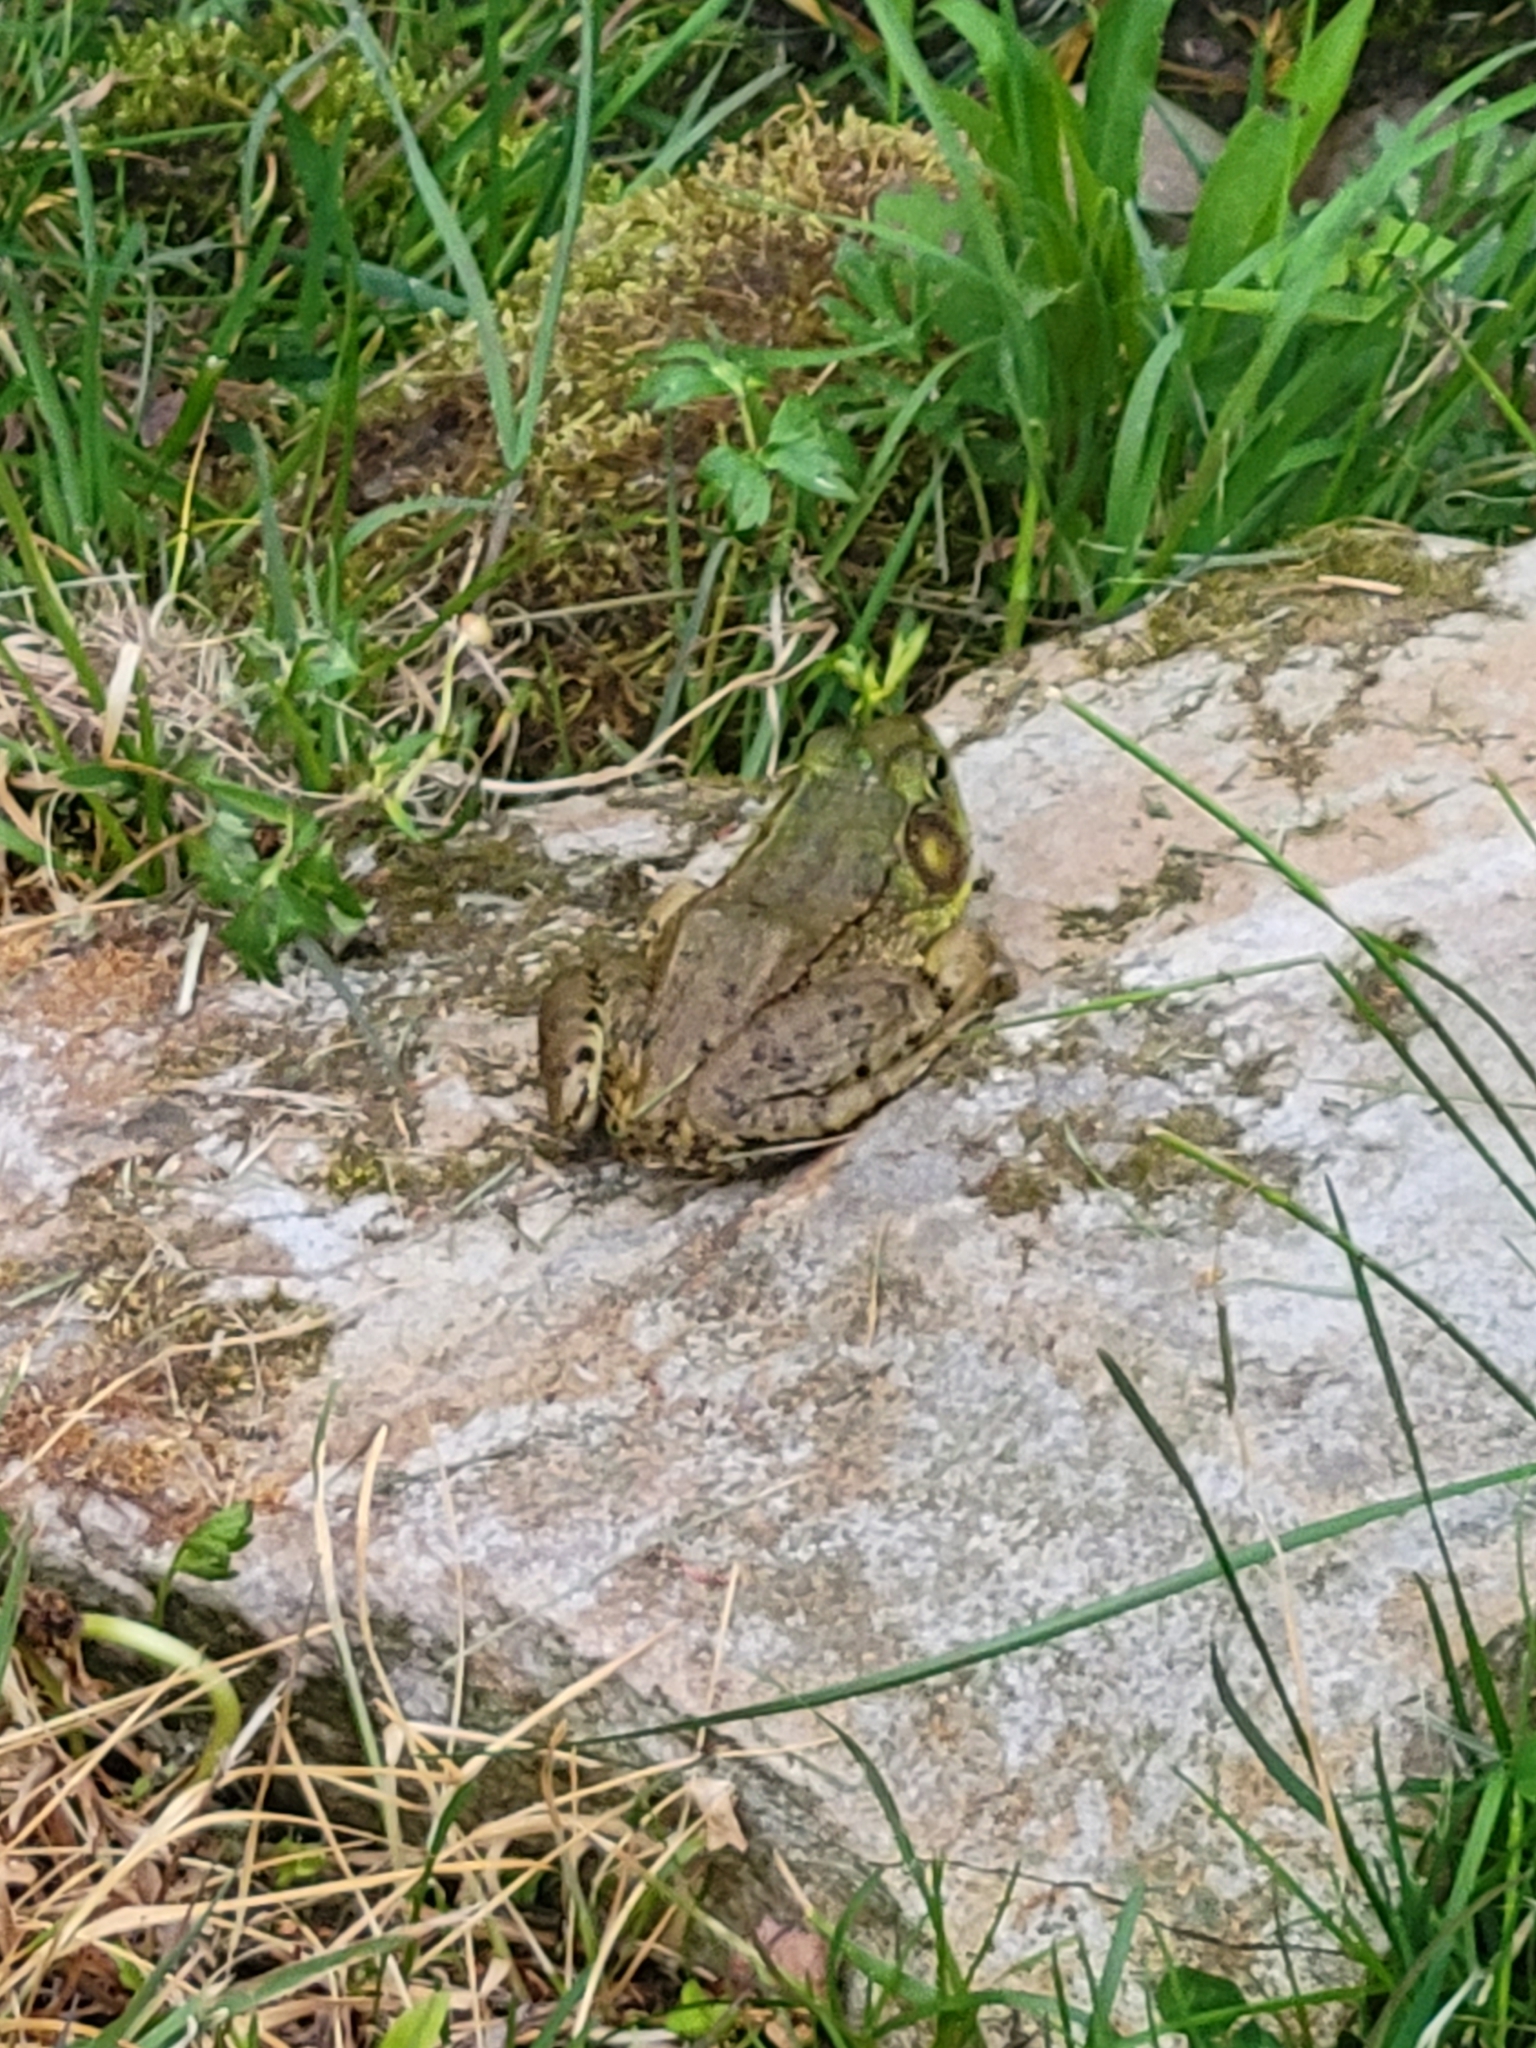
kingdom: Animalia
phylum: Chordata
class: Amphibia
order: Anura
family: Ranidae
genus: Lithobates
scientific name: Lithobates clamitans
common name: Green frog
